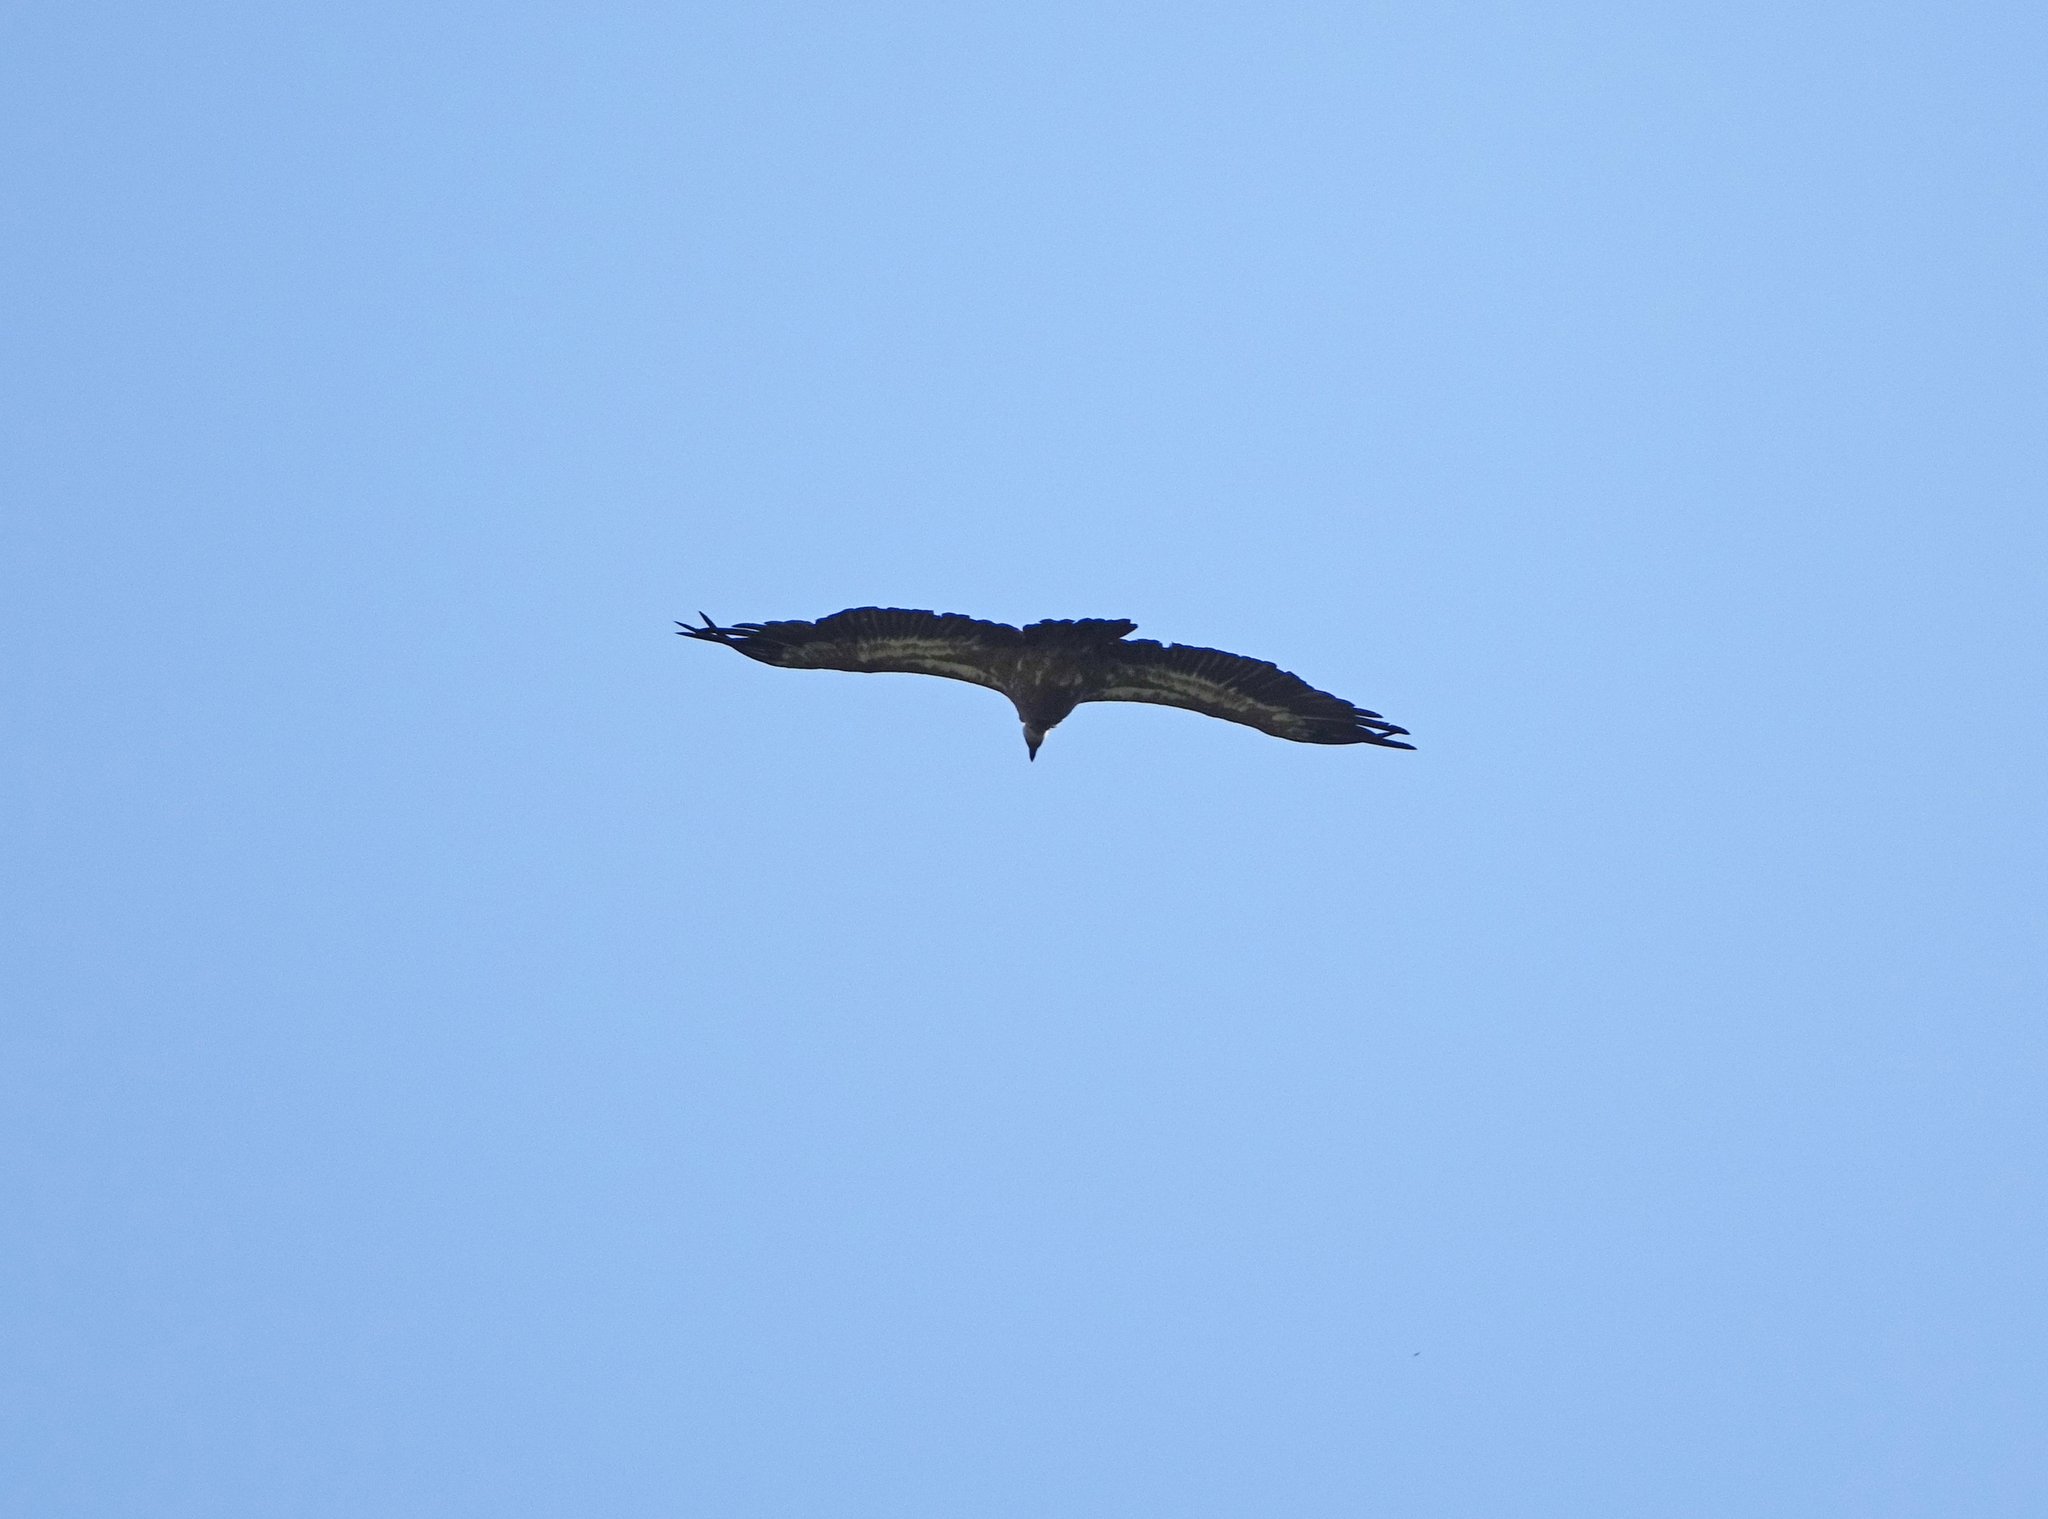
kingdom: Animalia
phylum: Chordata
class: Aves
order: Accipitriformes
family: Accipitridae
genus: Gyps
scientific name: Gyps fulvus
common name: Griffon vulture
